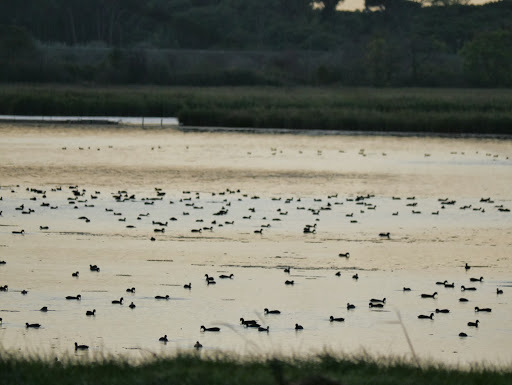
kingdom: Animalia
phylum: Chordata
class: Aves
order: Gruiformes
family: Rallidae
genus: Fulica
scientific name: Fulica atra
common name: Eurasian coot
